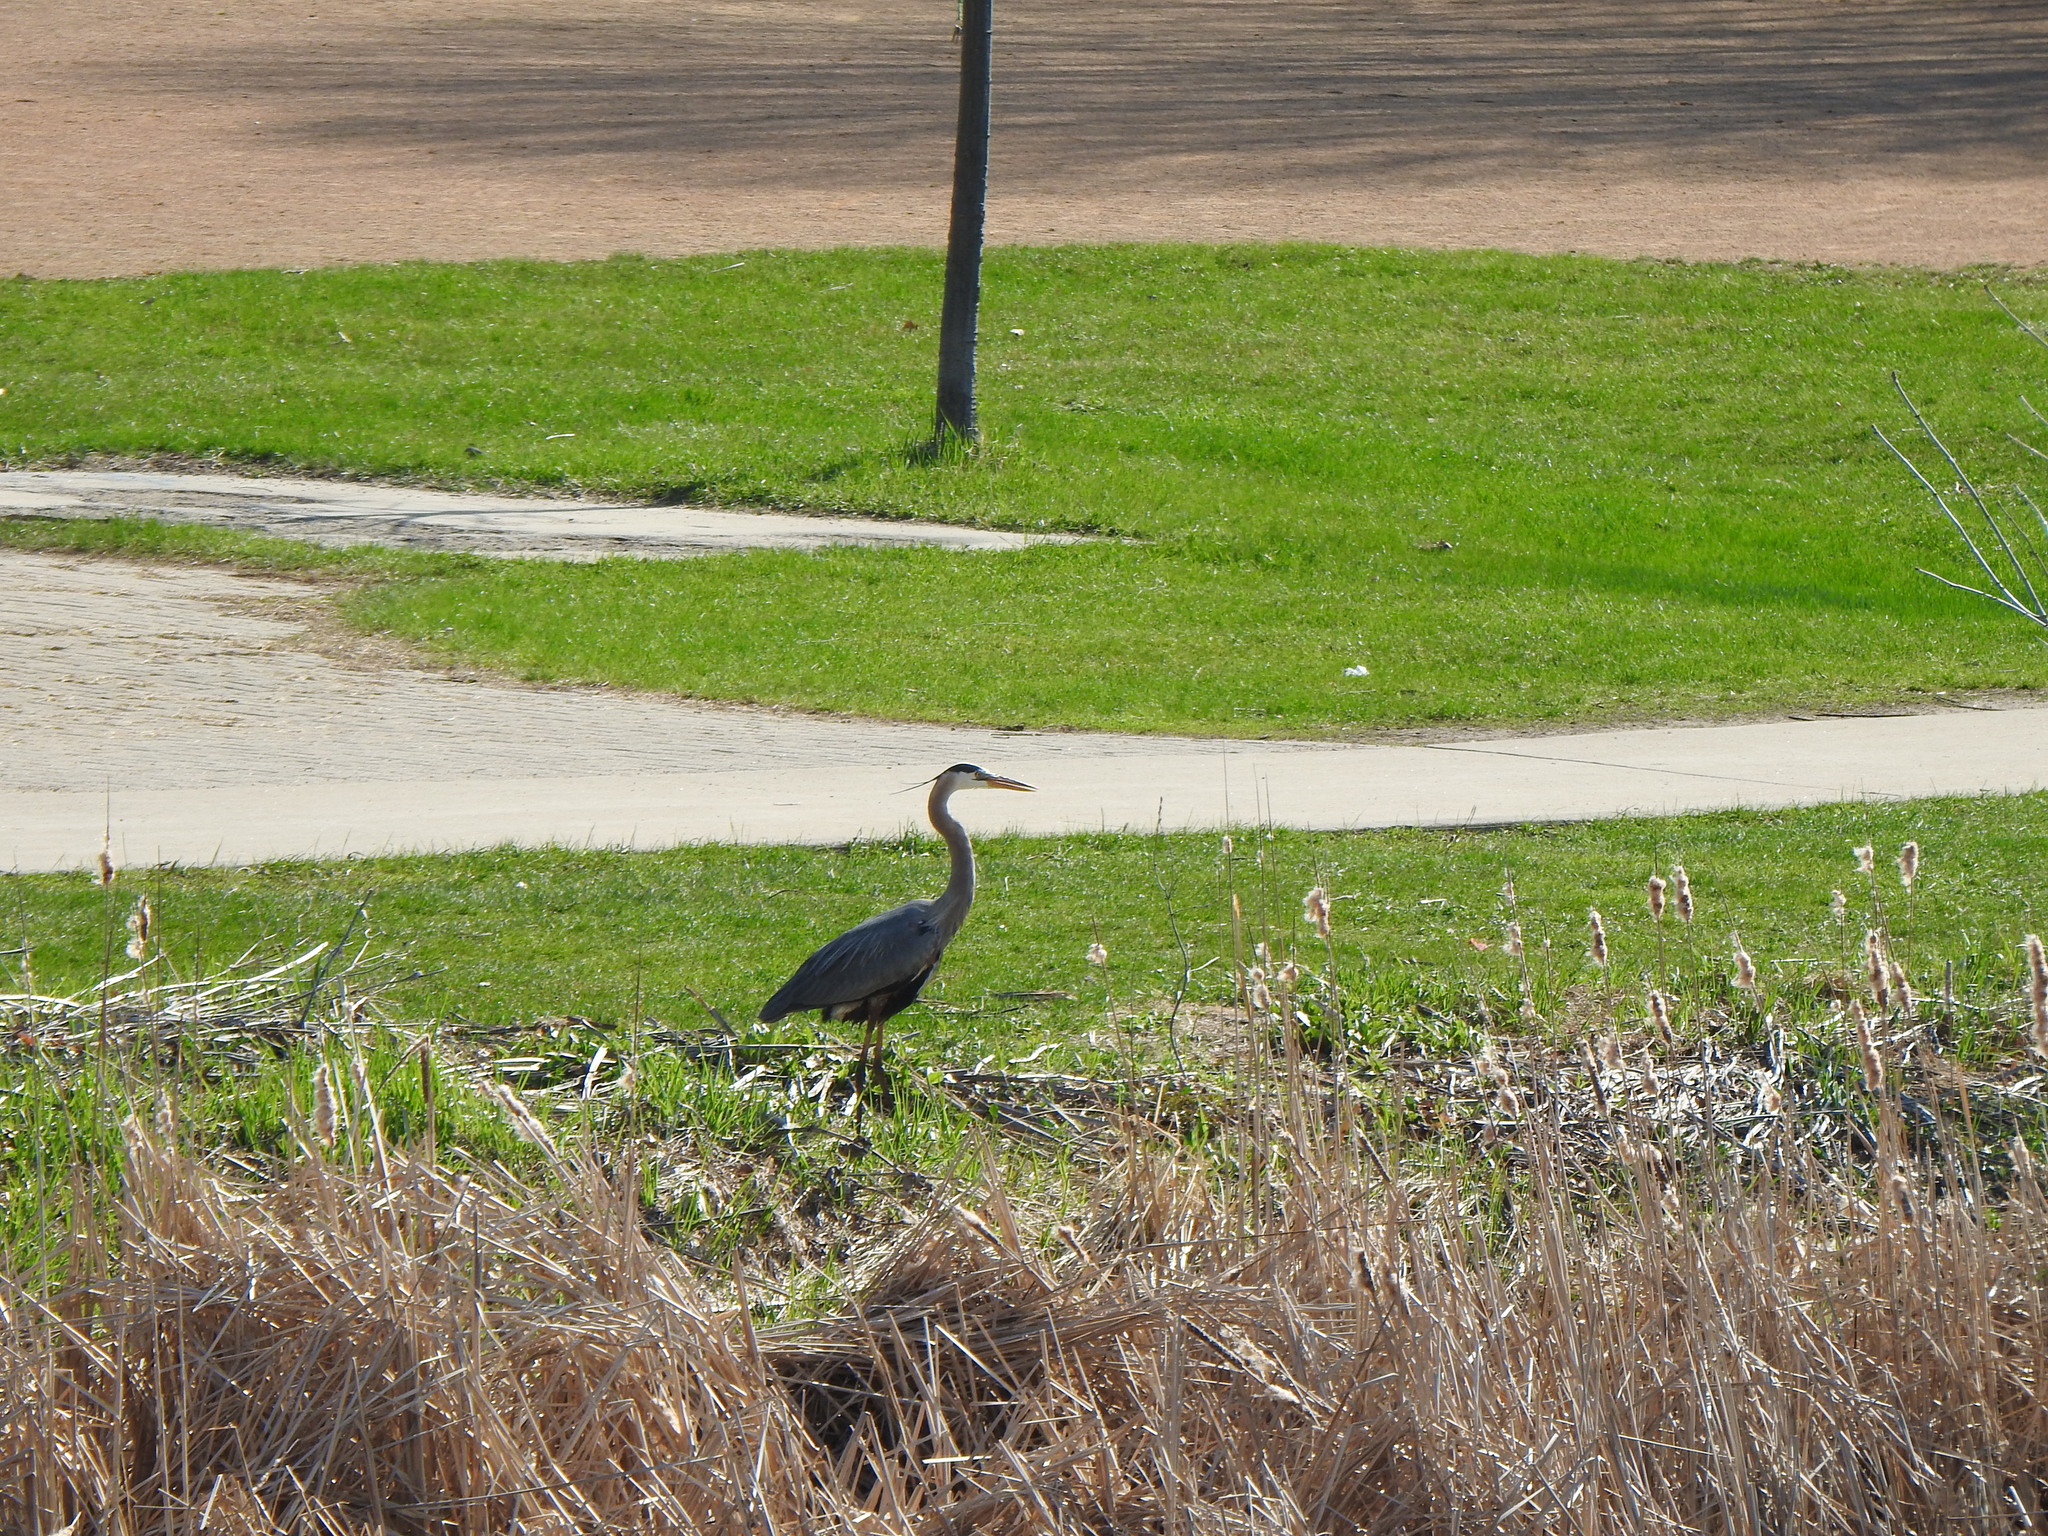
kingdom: Animalia
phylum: Chordata
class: Aves
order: Pelecaniformes
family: Ardeidae
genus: Ardea
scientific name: Ardea herodias
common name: Great blue heron
